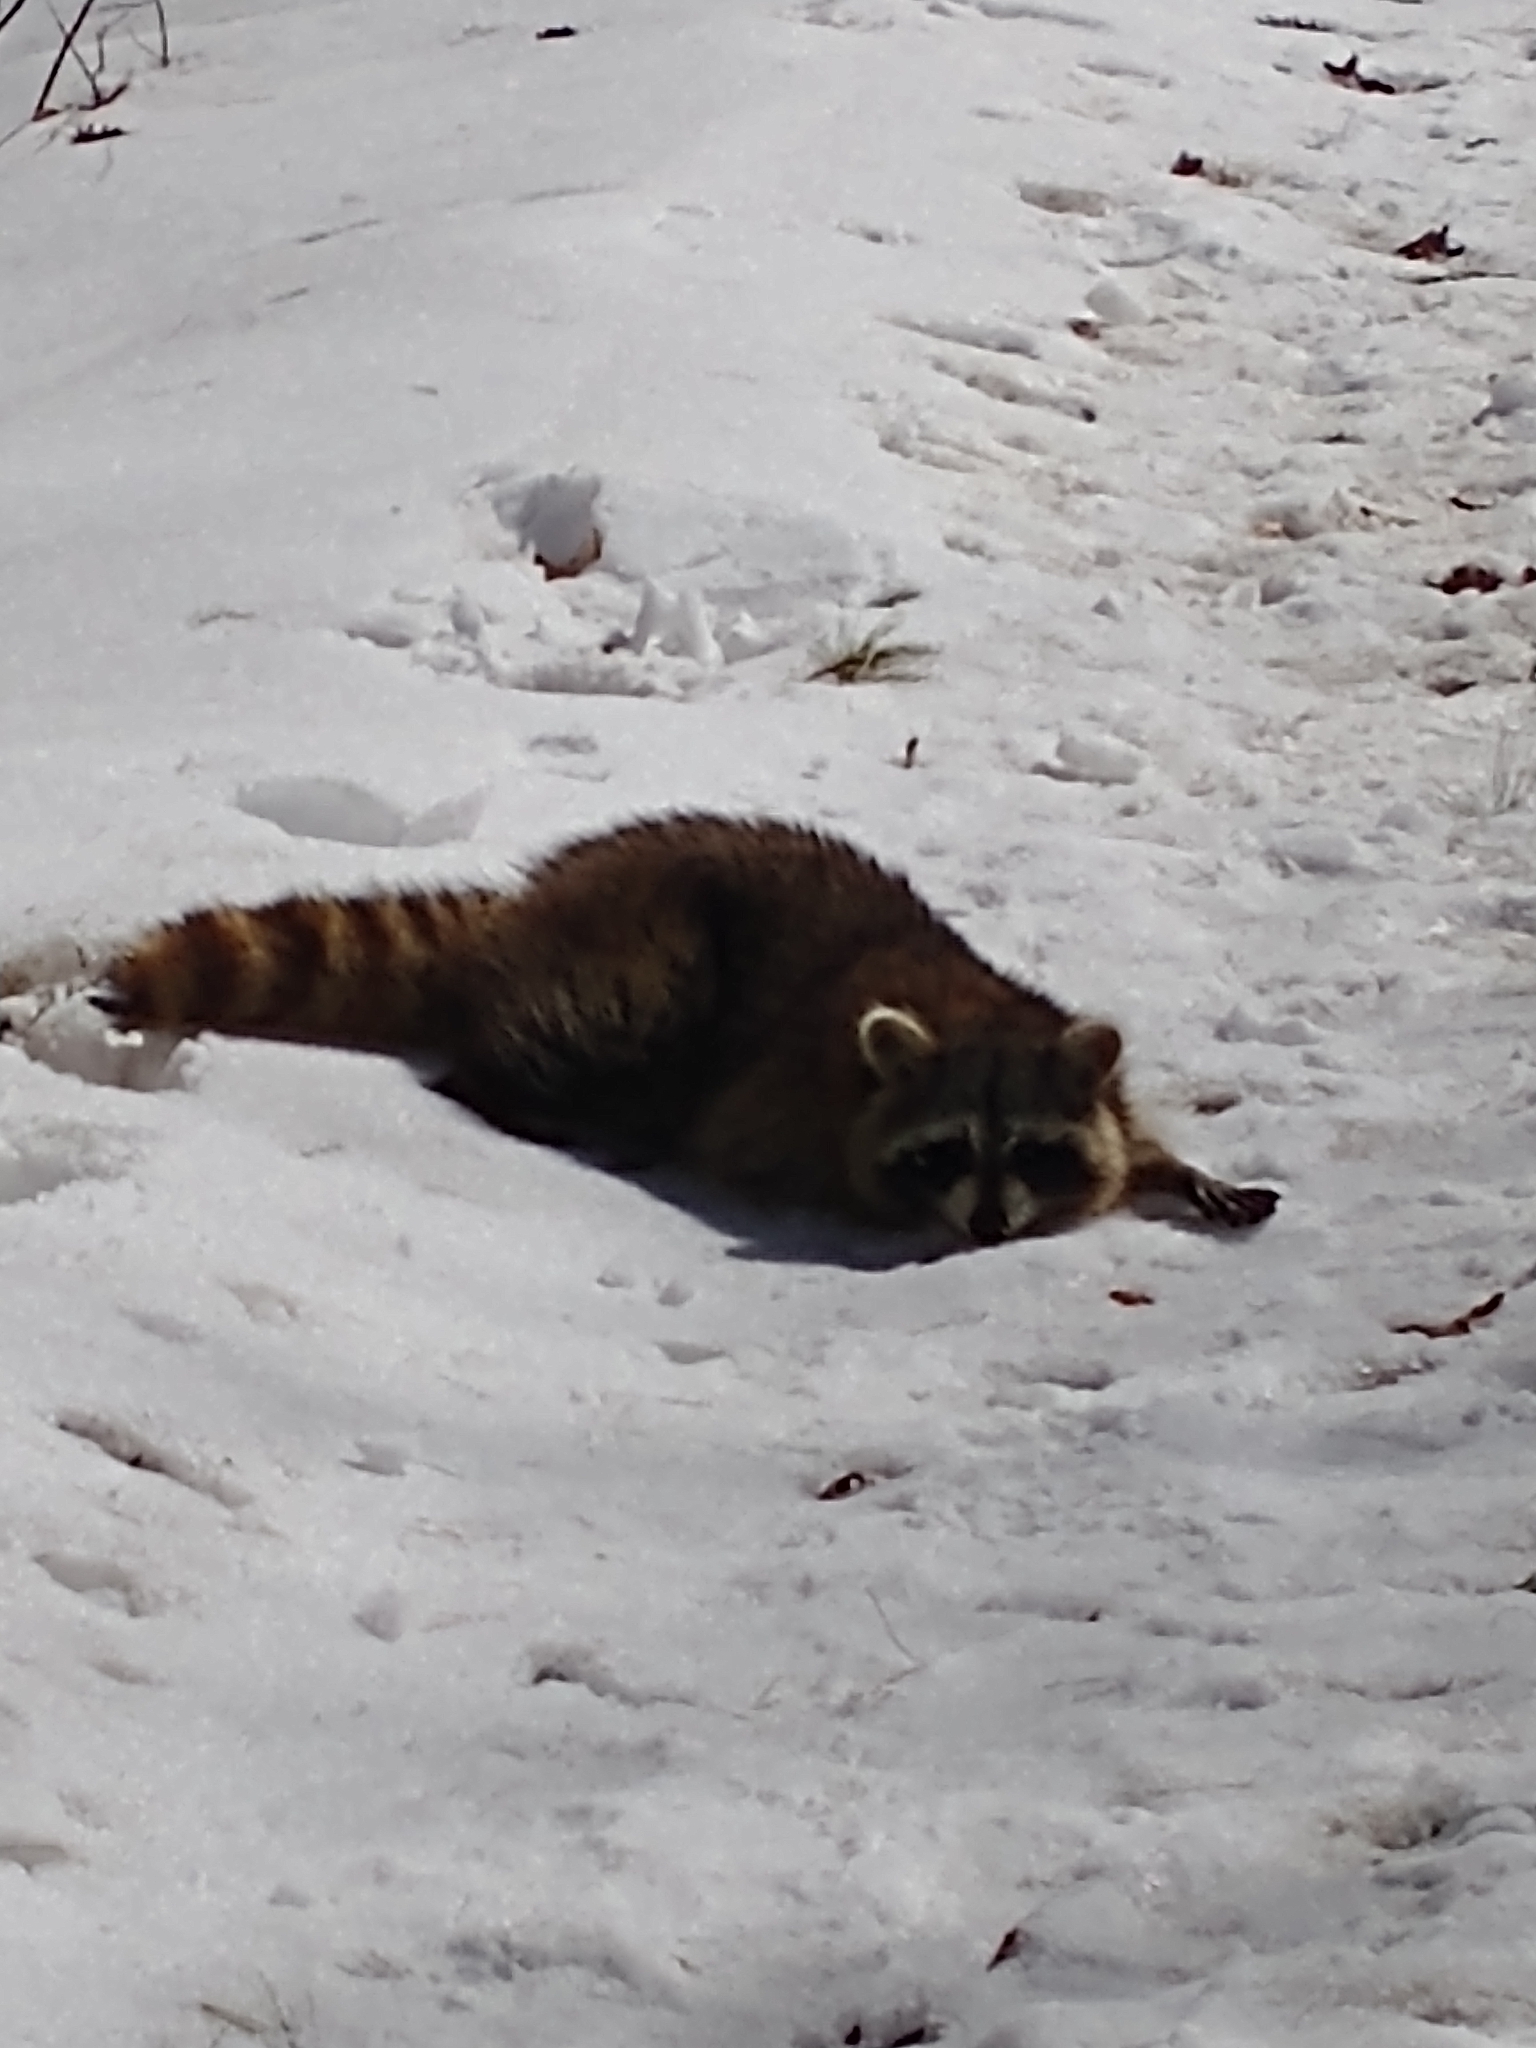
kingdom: Animalia
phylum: Chordata
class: Mammalia
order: Carnivora
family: Procyonidae
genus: Procyon
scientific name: Procyon lotor
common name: Raccoon
